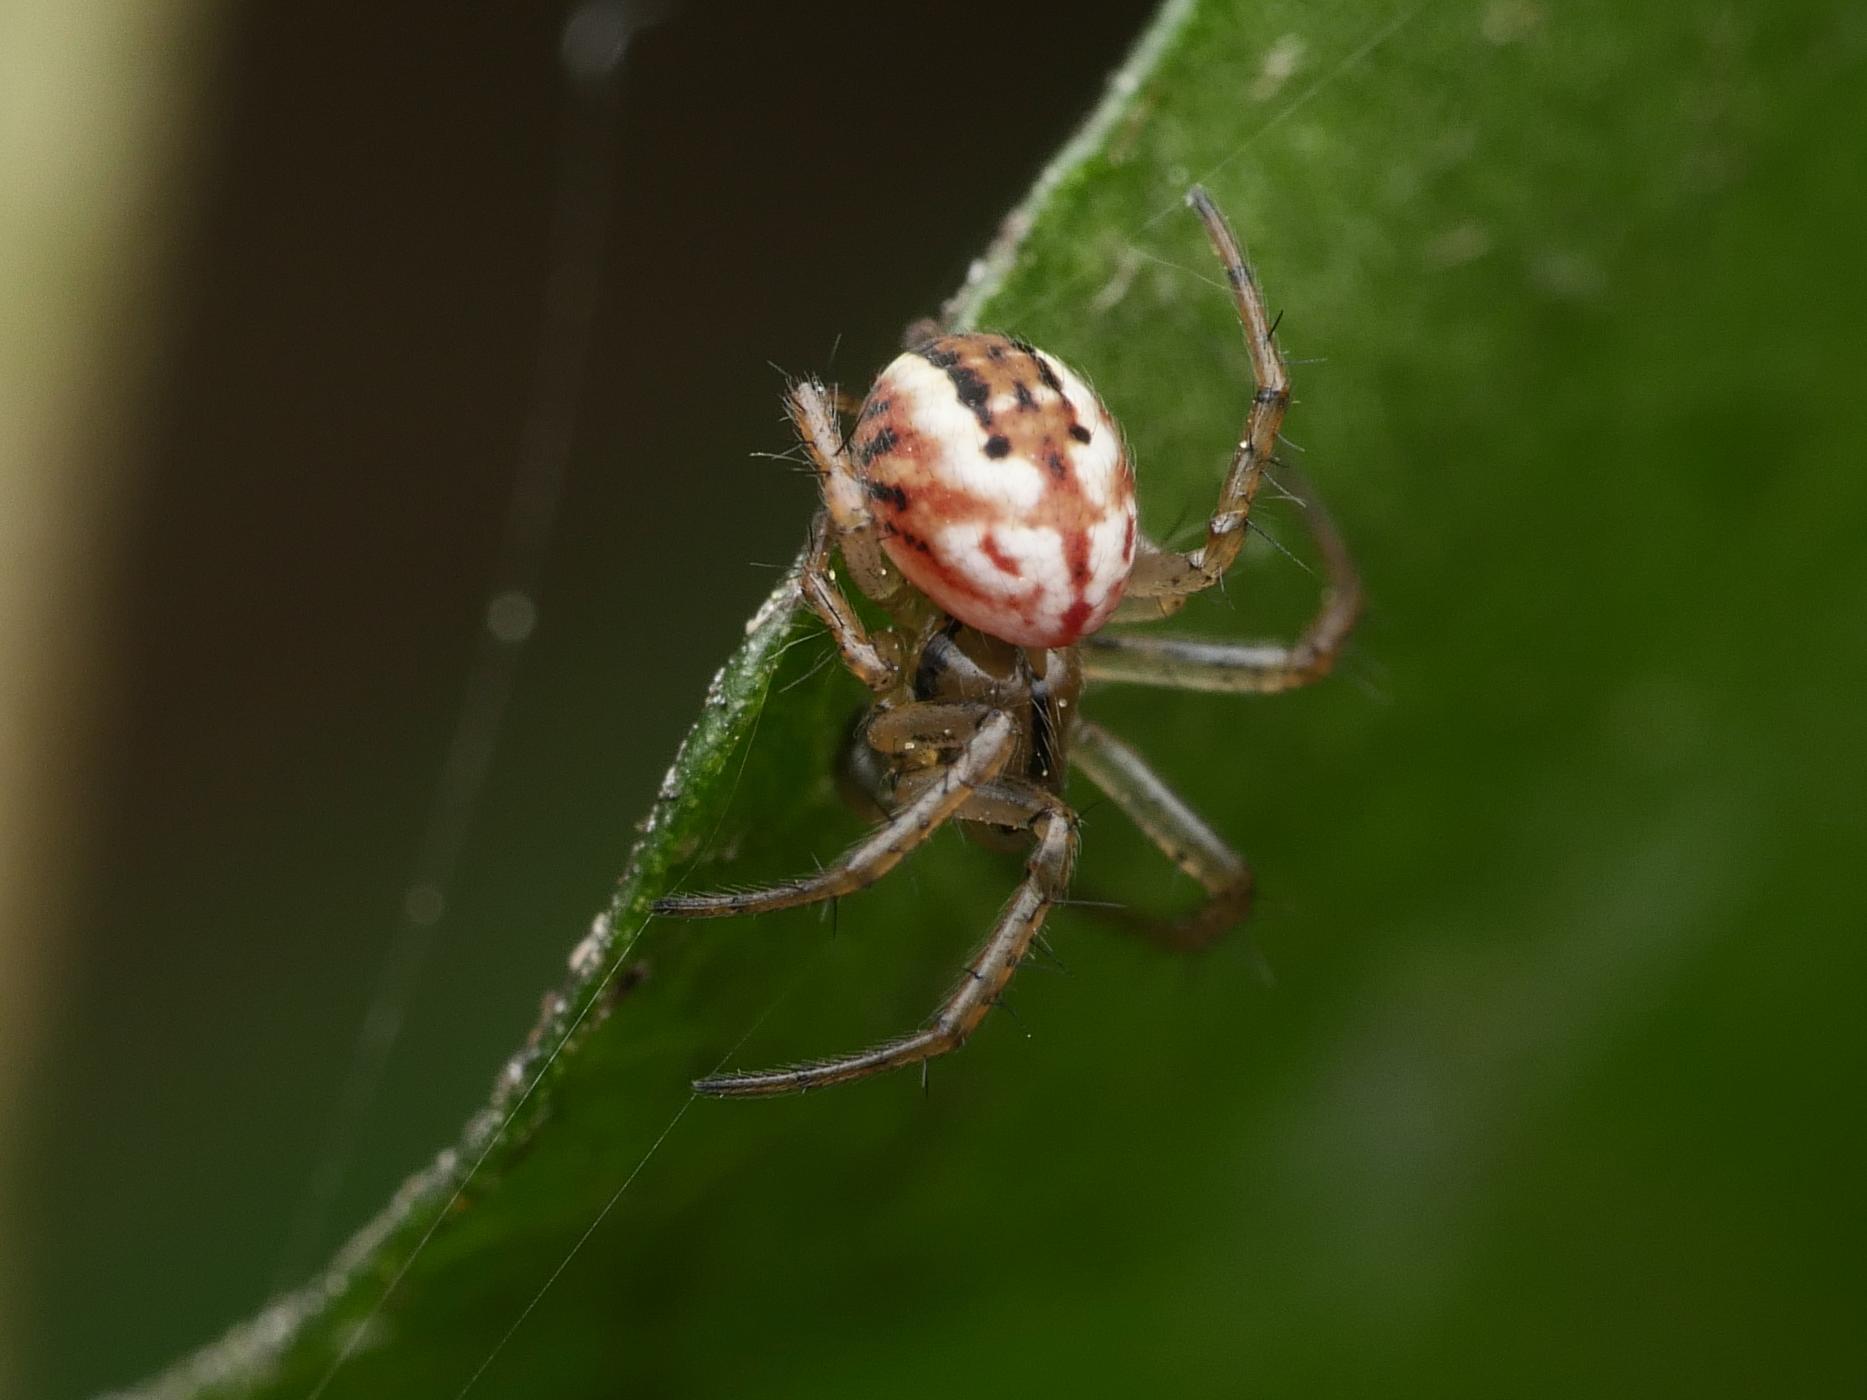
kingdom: Animalia
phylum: Arthropoda
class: Arachnida
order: Araneae
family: Araneidae
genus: Mangora
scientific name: Mangora acalypha
